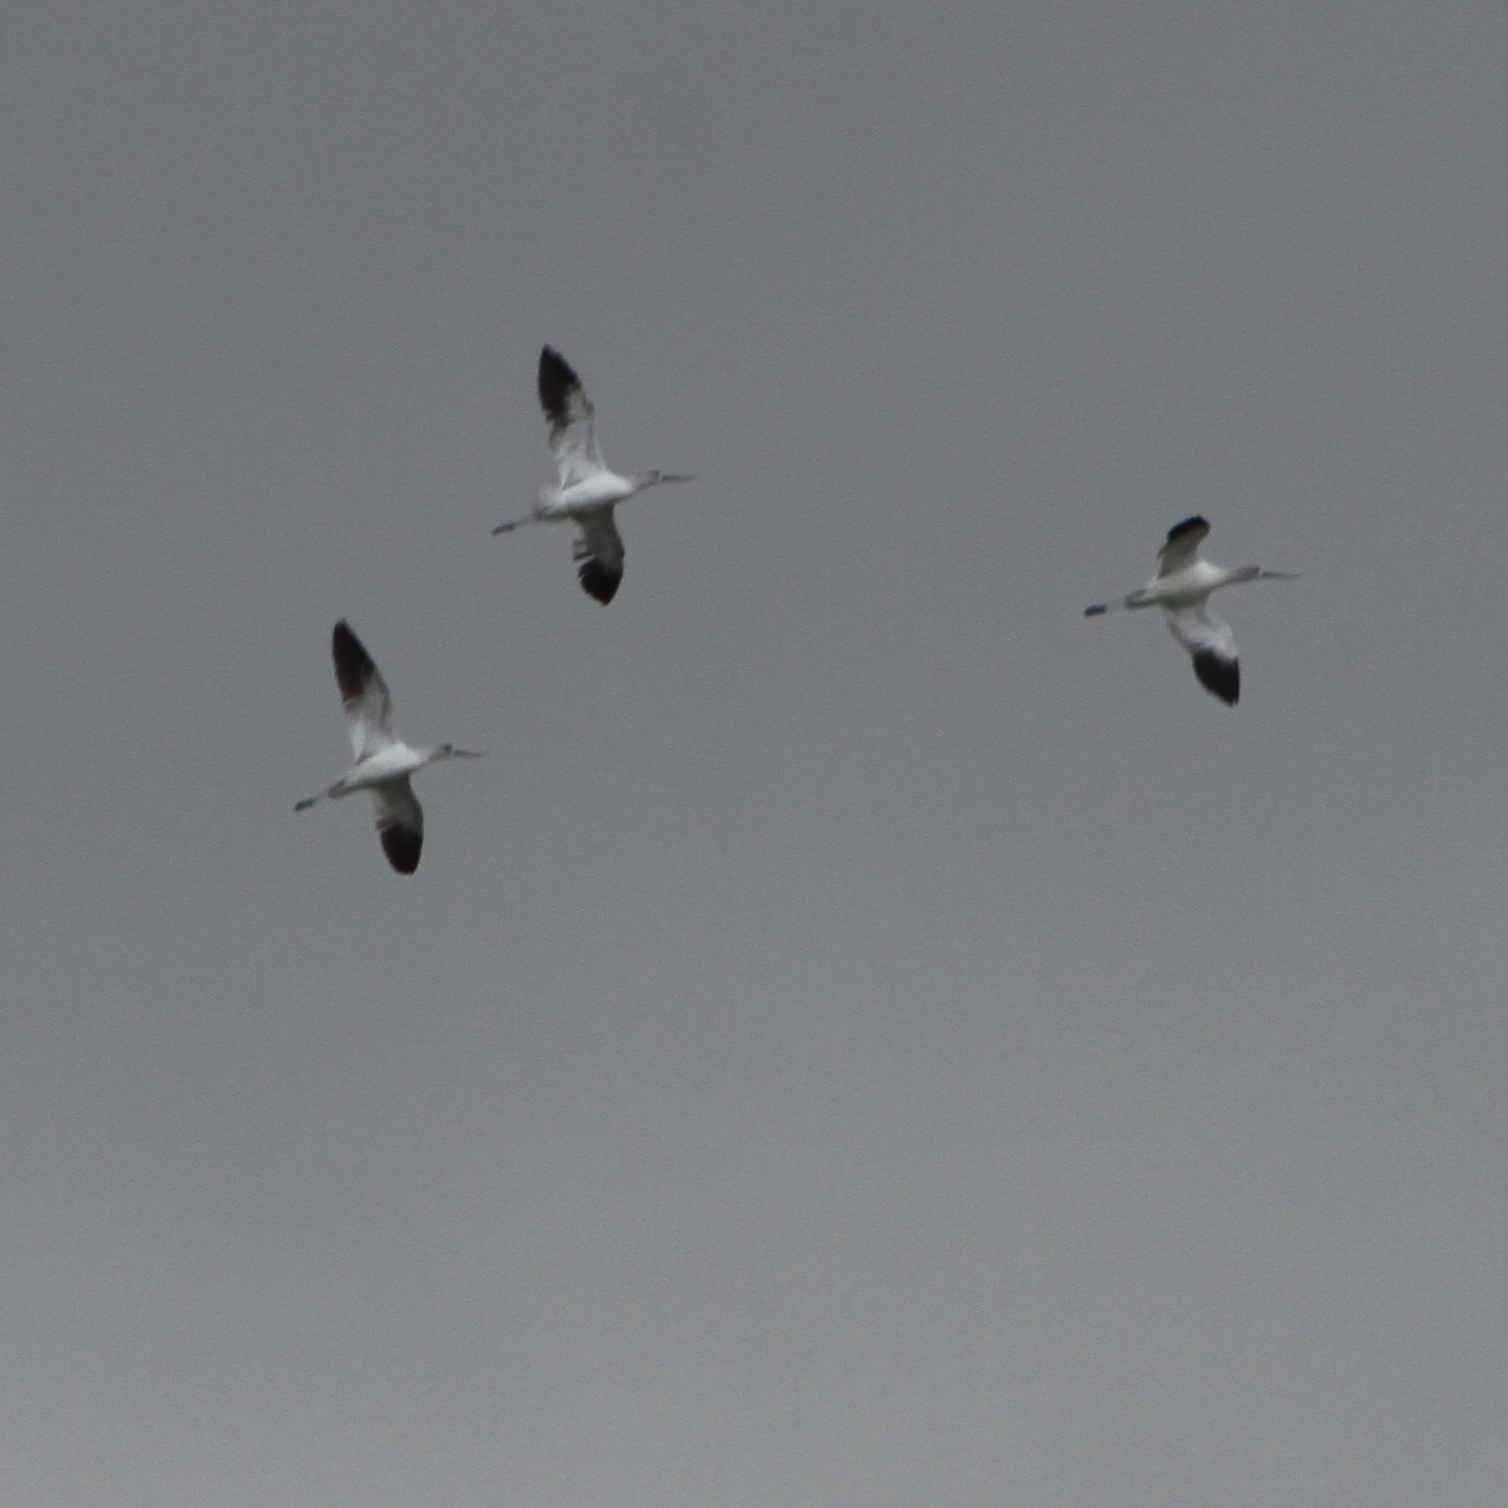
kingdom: Animalia
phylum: Chordata
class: Aves
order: Charadriiformes
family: Recurvirostridae
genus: Recurvirostra
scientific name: Recurvirostra americana
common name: American avocet
